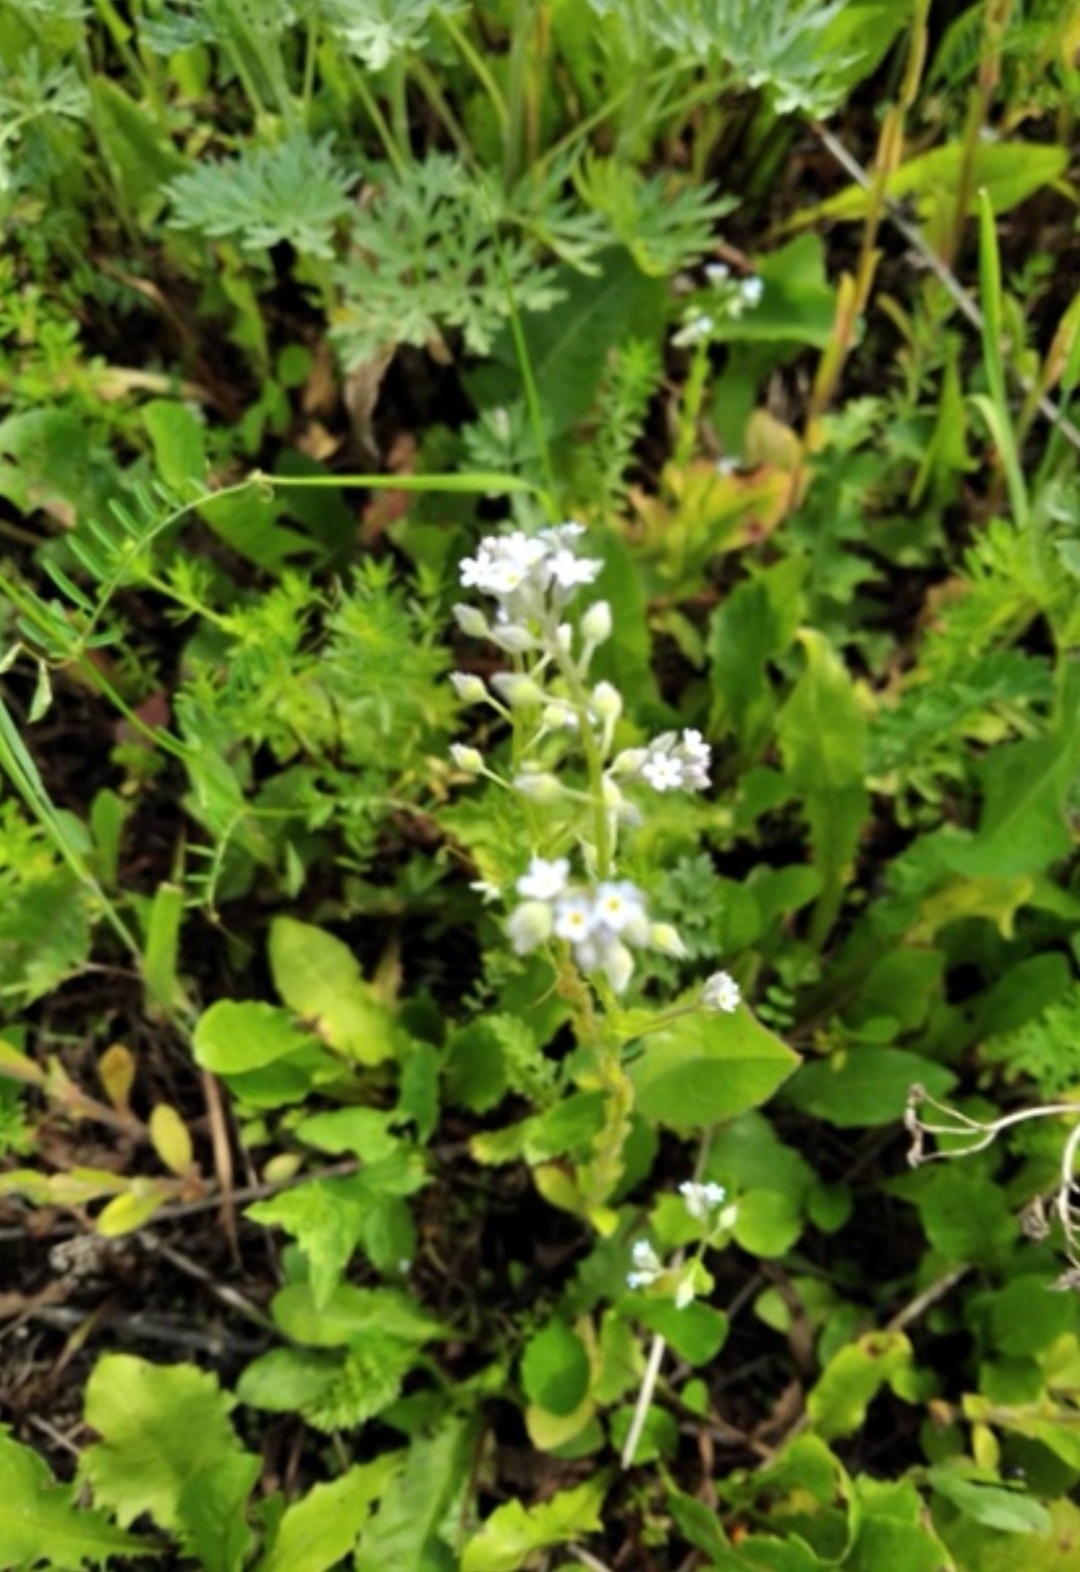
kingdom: Plantae
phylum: Tracheophyta
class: Magnoliopsida
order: Boraginales
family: Boraginaceae
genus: Myosotis
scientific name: Myosotis arvensis
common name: Field forget-me-not
